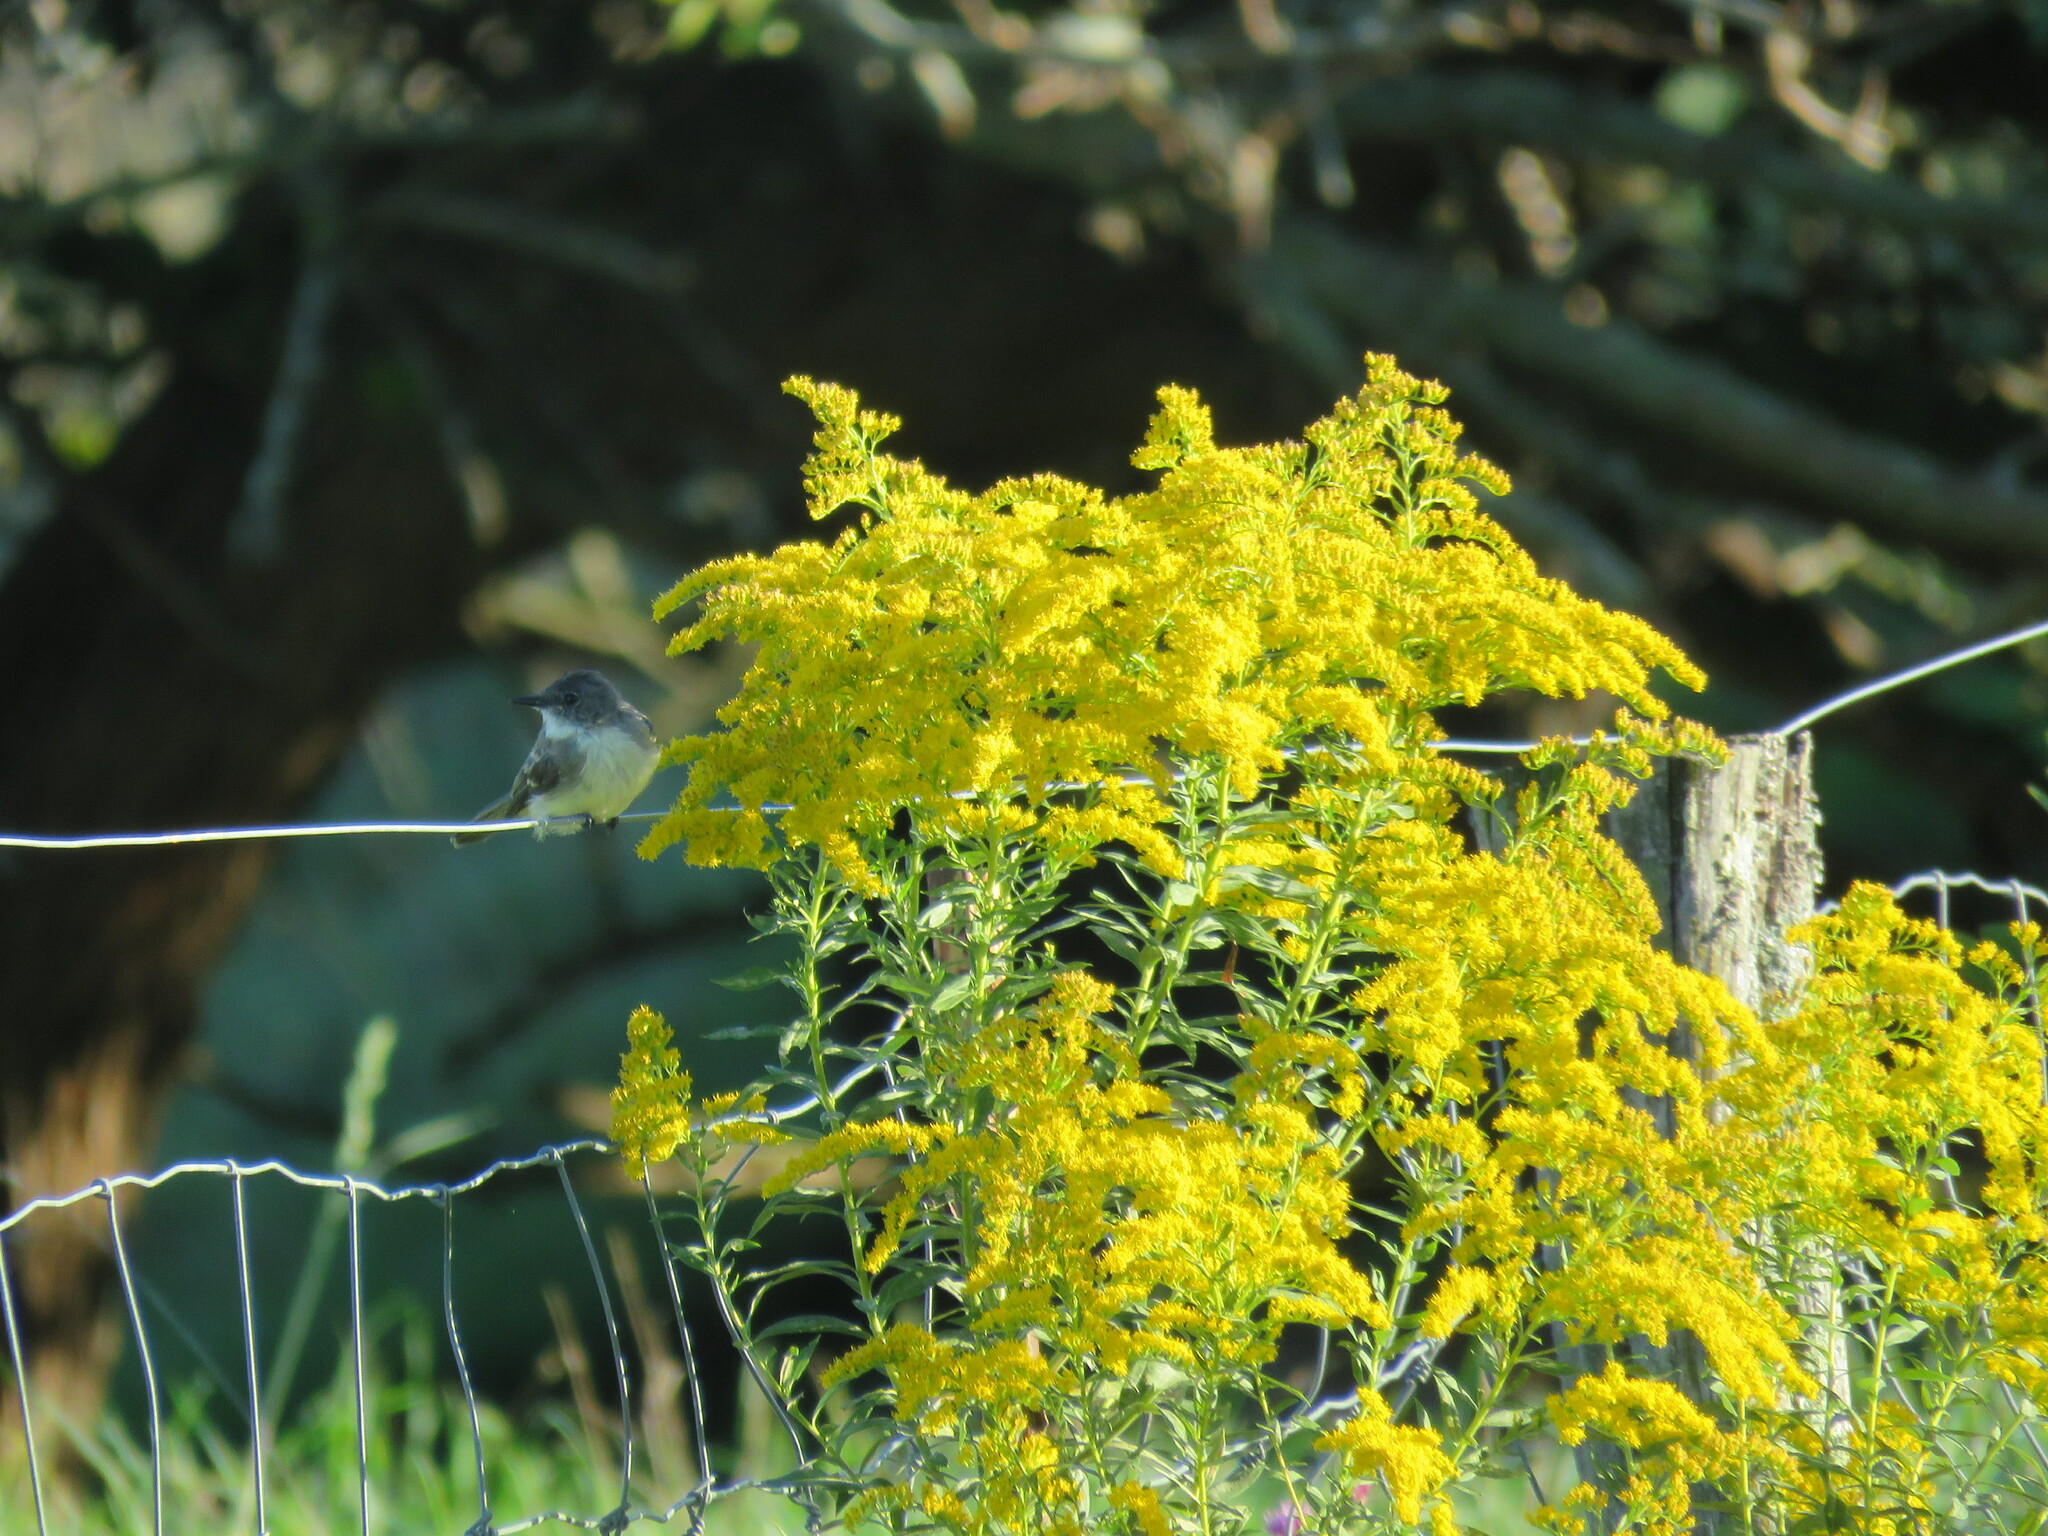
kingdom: Animalia
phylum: Chordata
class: Aves
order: Passeriformes
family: Tyrannidae
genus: Sayornis
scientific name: Sayornis phoebe
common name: Eastern phoebe
